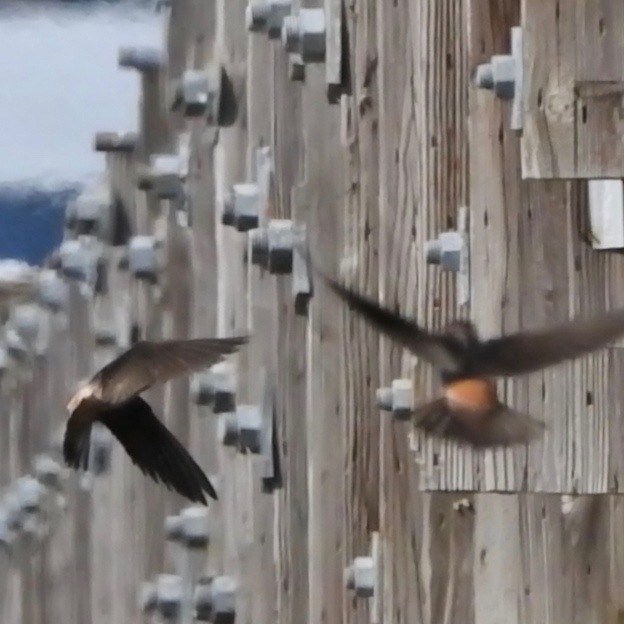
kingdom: Animalia
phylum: Chordata
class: Aves
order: Passeriformes
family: Hirundinidae
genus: Petrochelidon
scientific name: Petrochelidon pyrrhonota
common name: American cliff swallow
